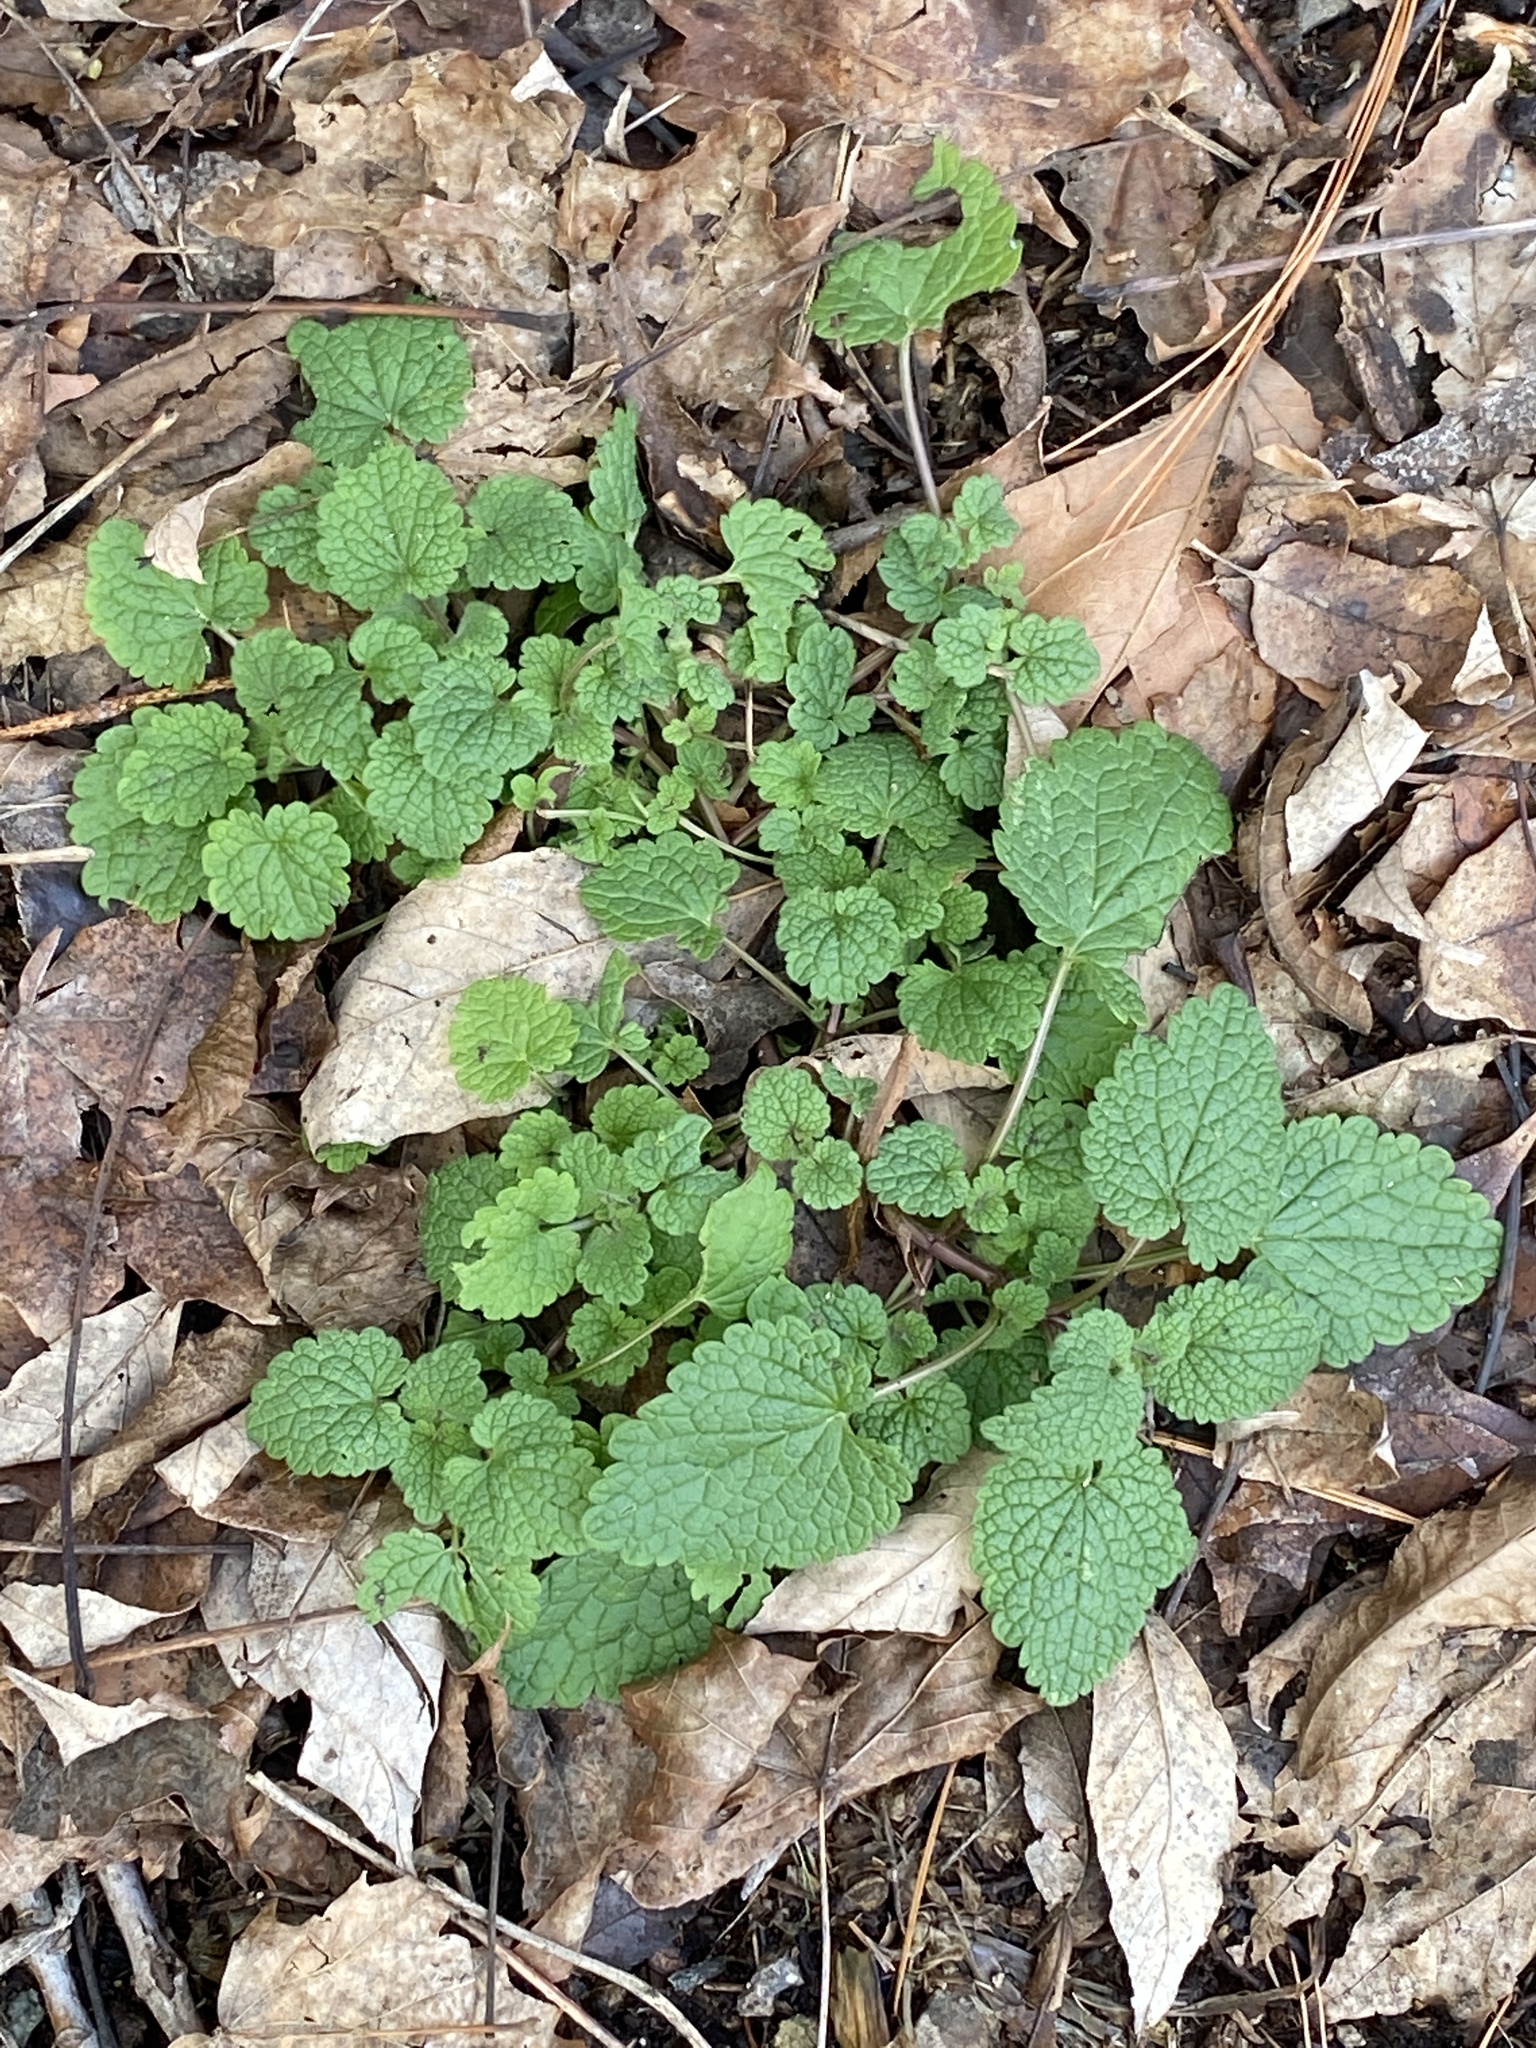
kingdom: Plantae
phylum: Tracheophyta
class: Magnoliopsida
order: Lamiales
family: Lamiaceae
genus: Lamium
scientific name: Lamium purpureum
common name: Red dead-nettle
